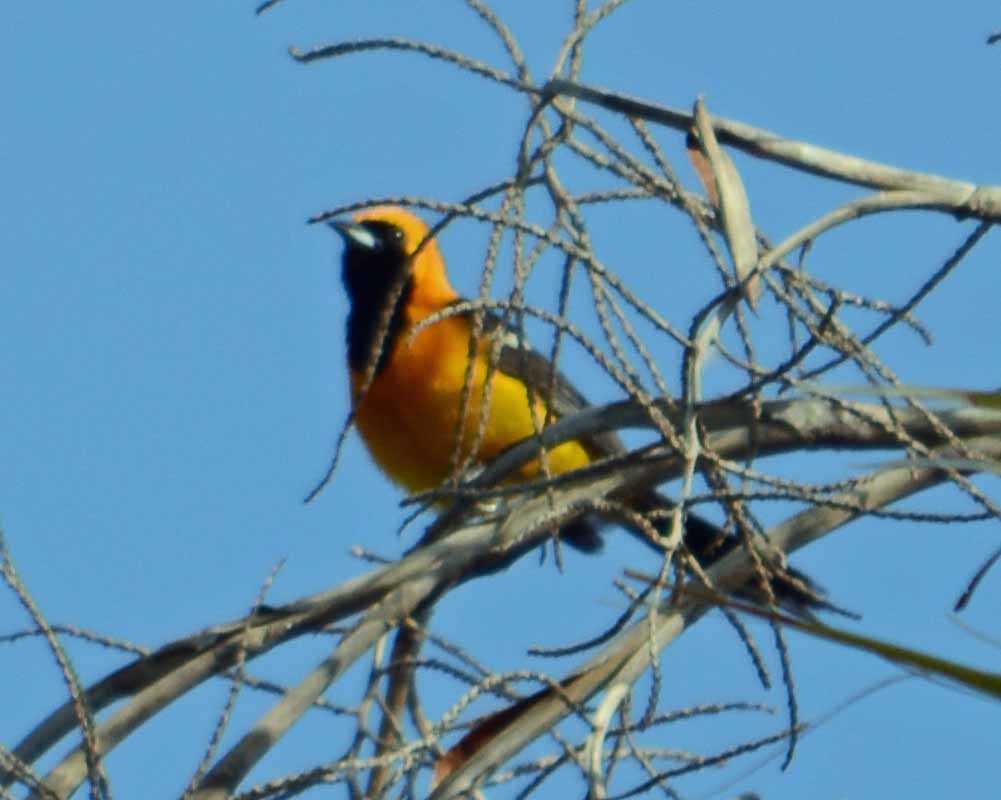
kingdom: Animalia
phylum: Chordata
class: Aves
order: Passeriformes
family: Icteridae
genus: Icterus
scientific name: Icterus cucullatus
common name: Hooded oriole
